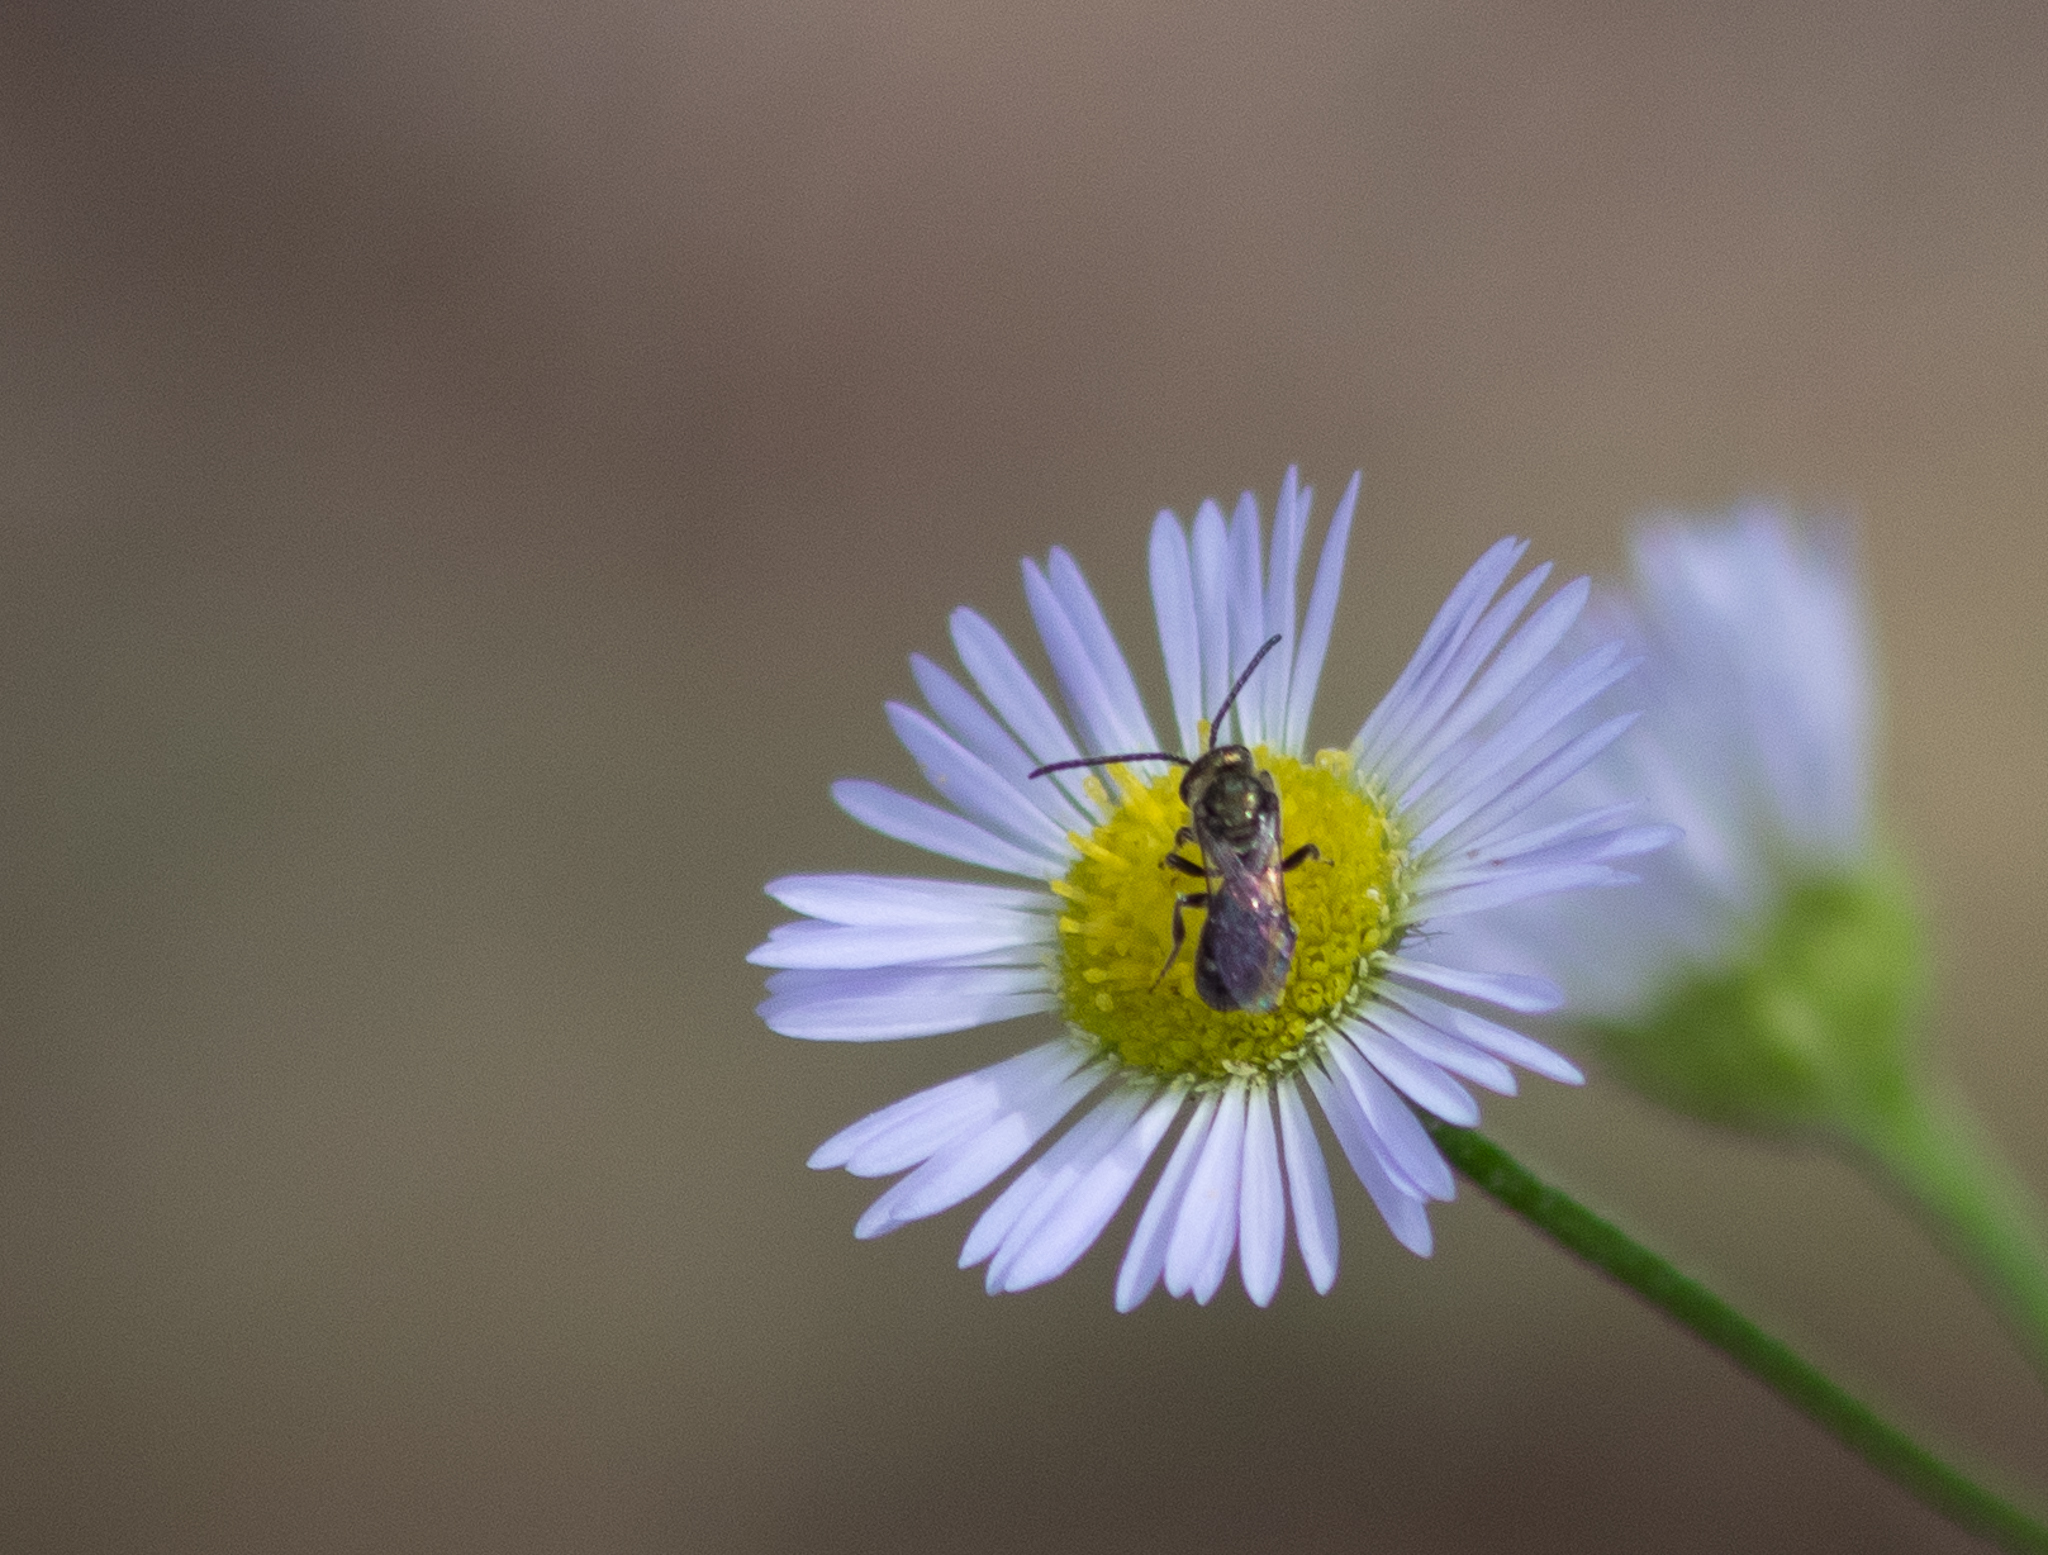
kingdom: Animalia
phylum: Arthropoda
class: Insecta
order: Hymenoptera
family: Halictidae
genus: Dialictus
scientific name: Dialictus
